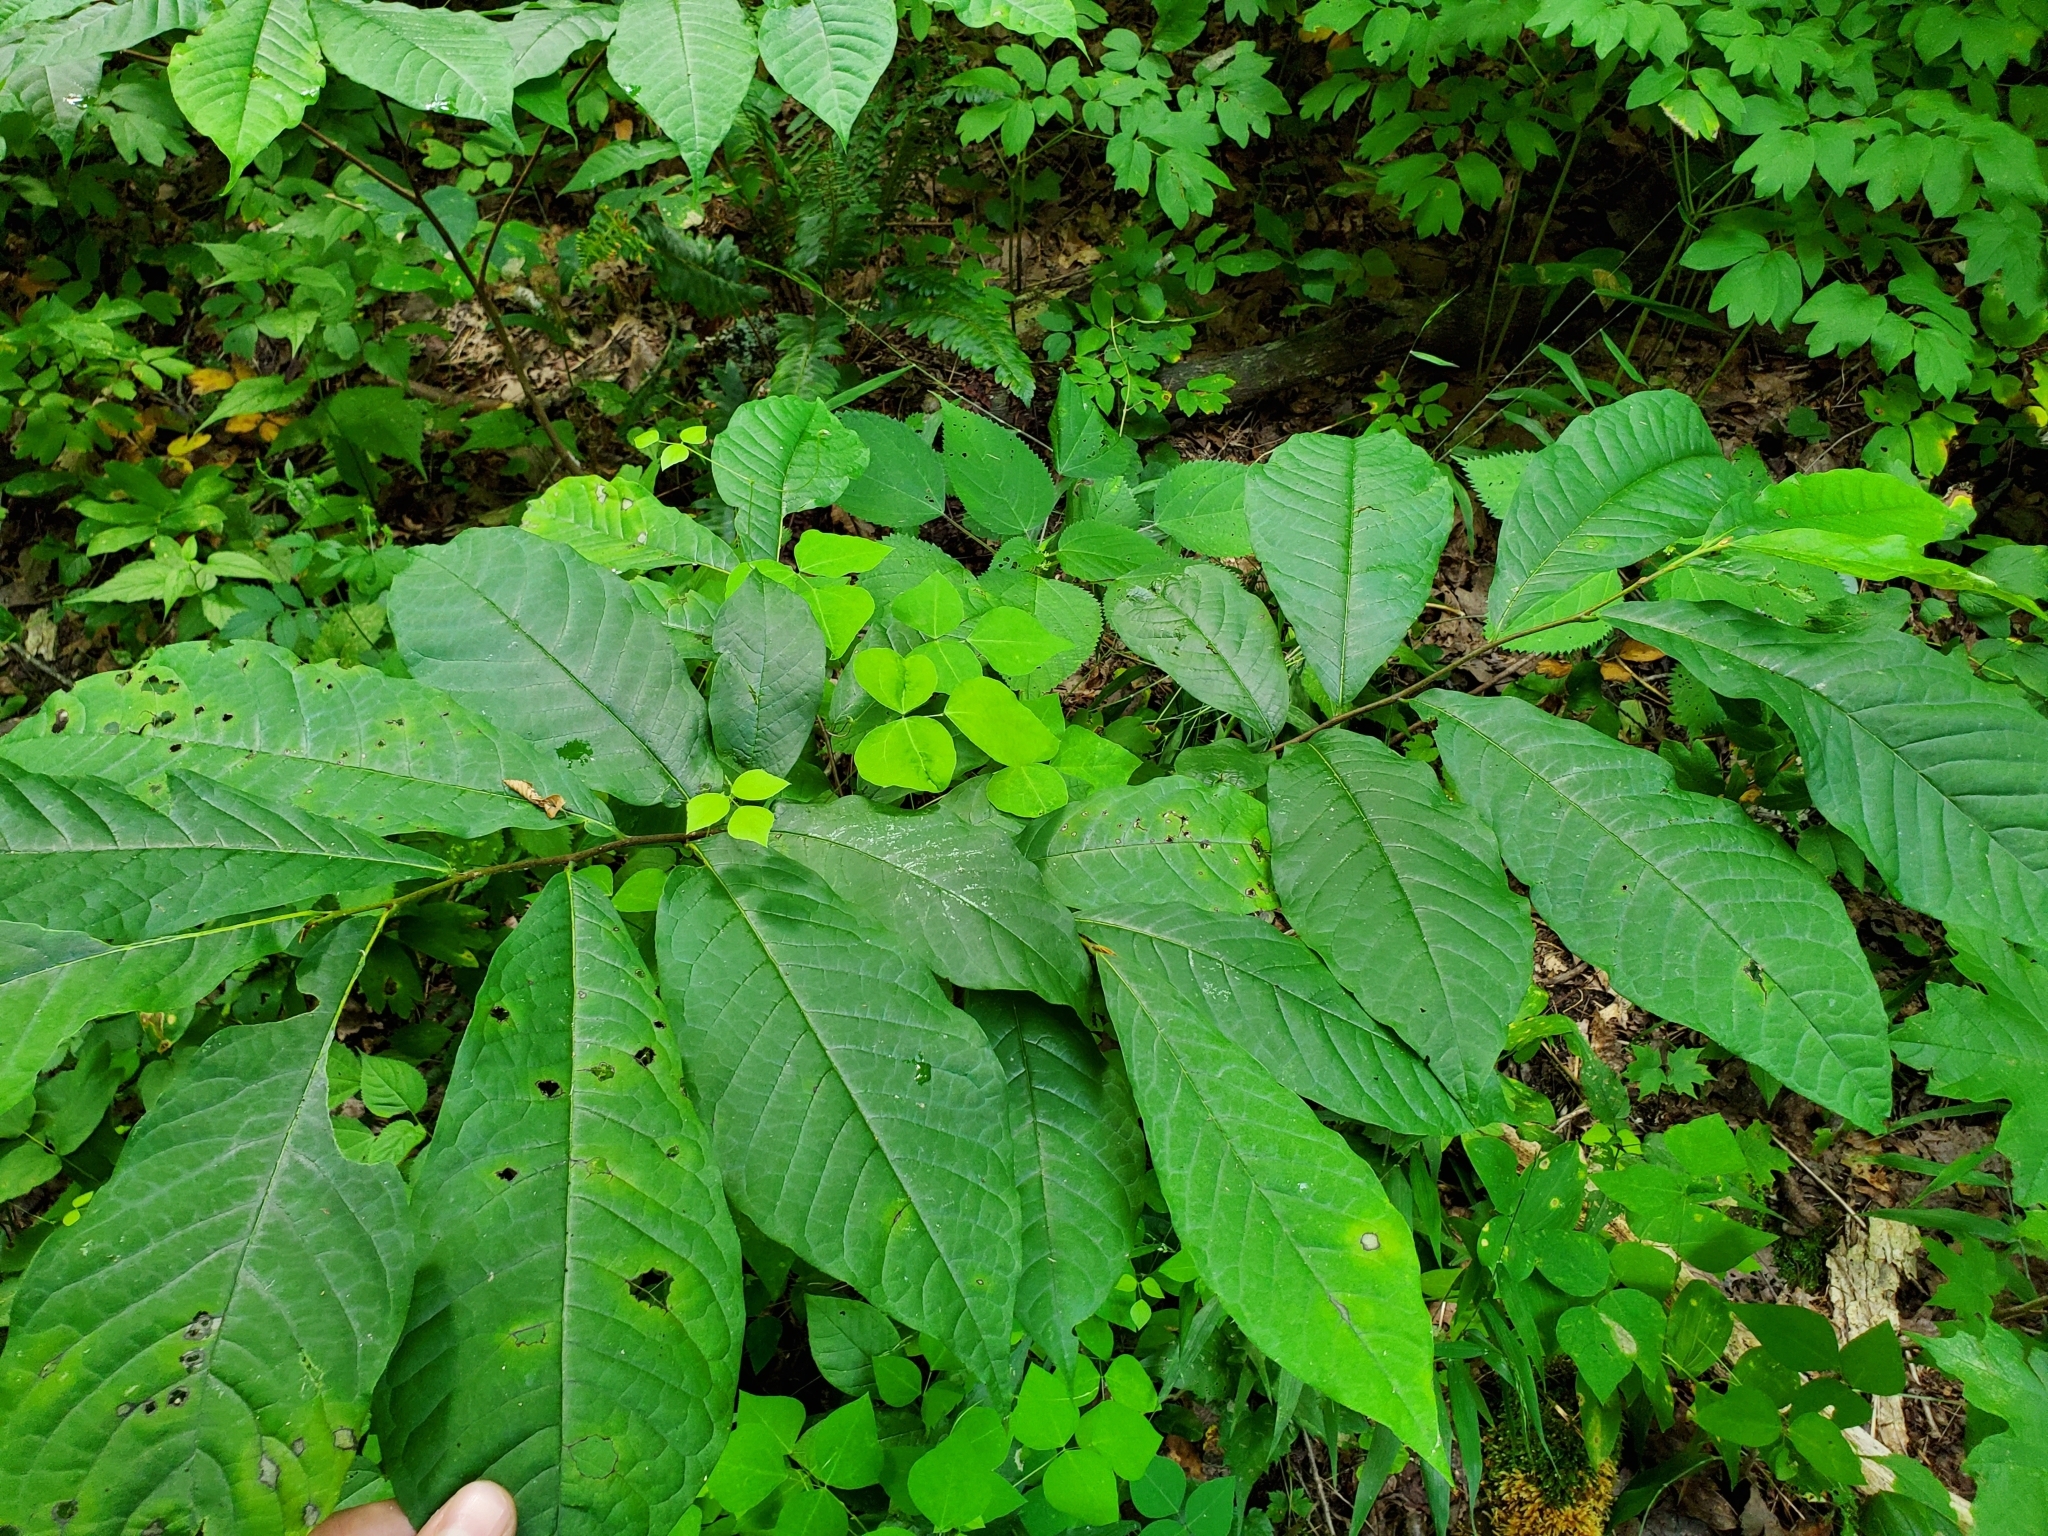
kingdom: Plantae
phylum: Tracheophyta
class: Magnoliopsida
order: Magnoliales
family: Annonaceae
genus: Asimina
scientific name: Asimina triloba
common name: Dog-banana
